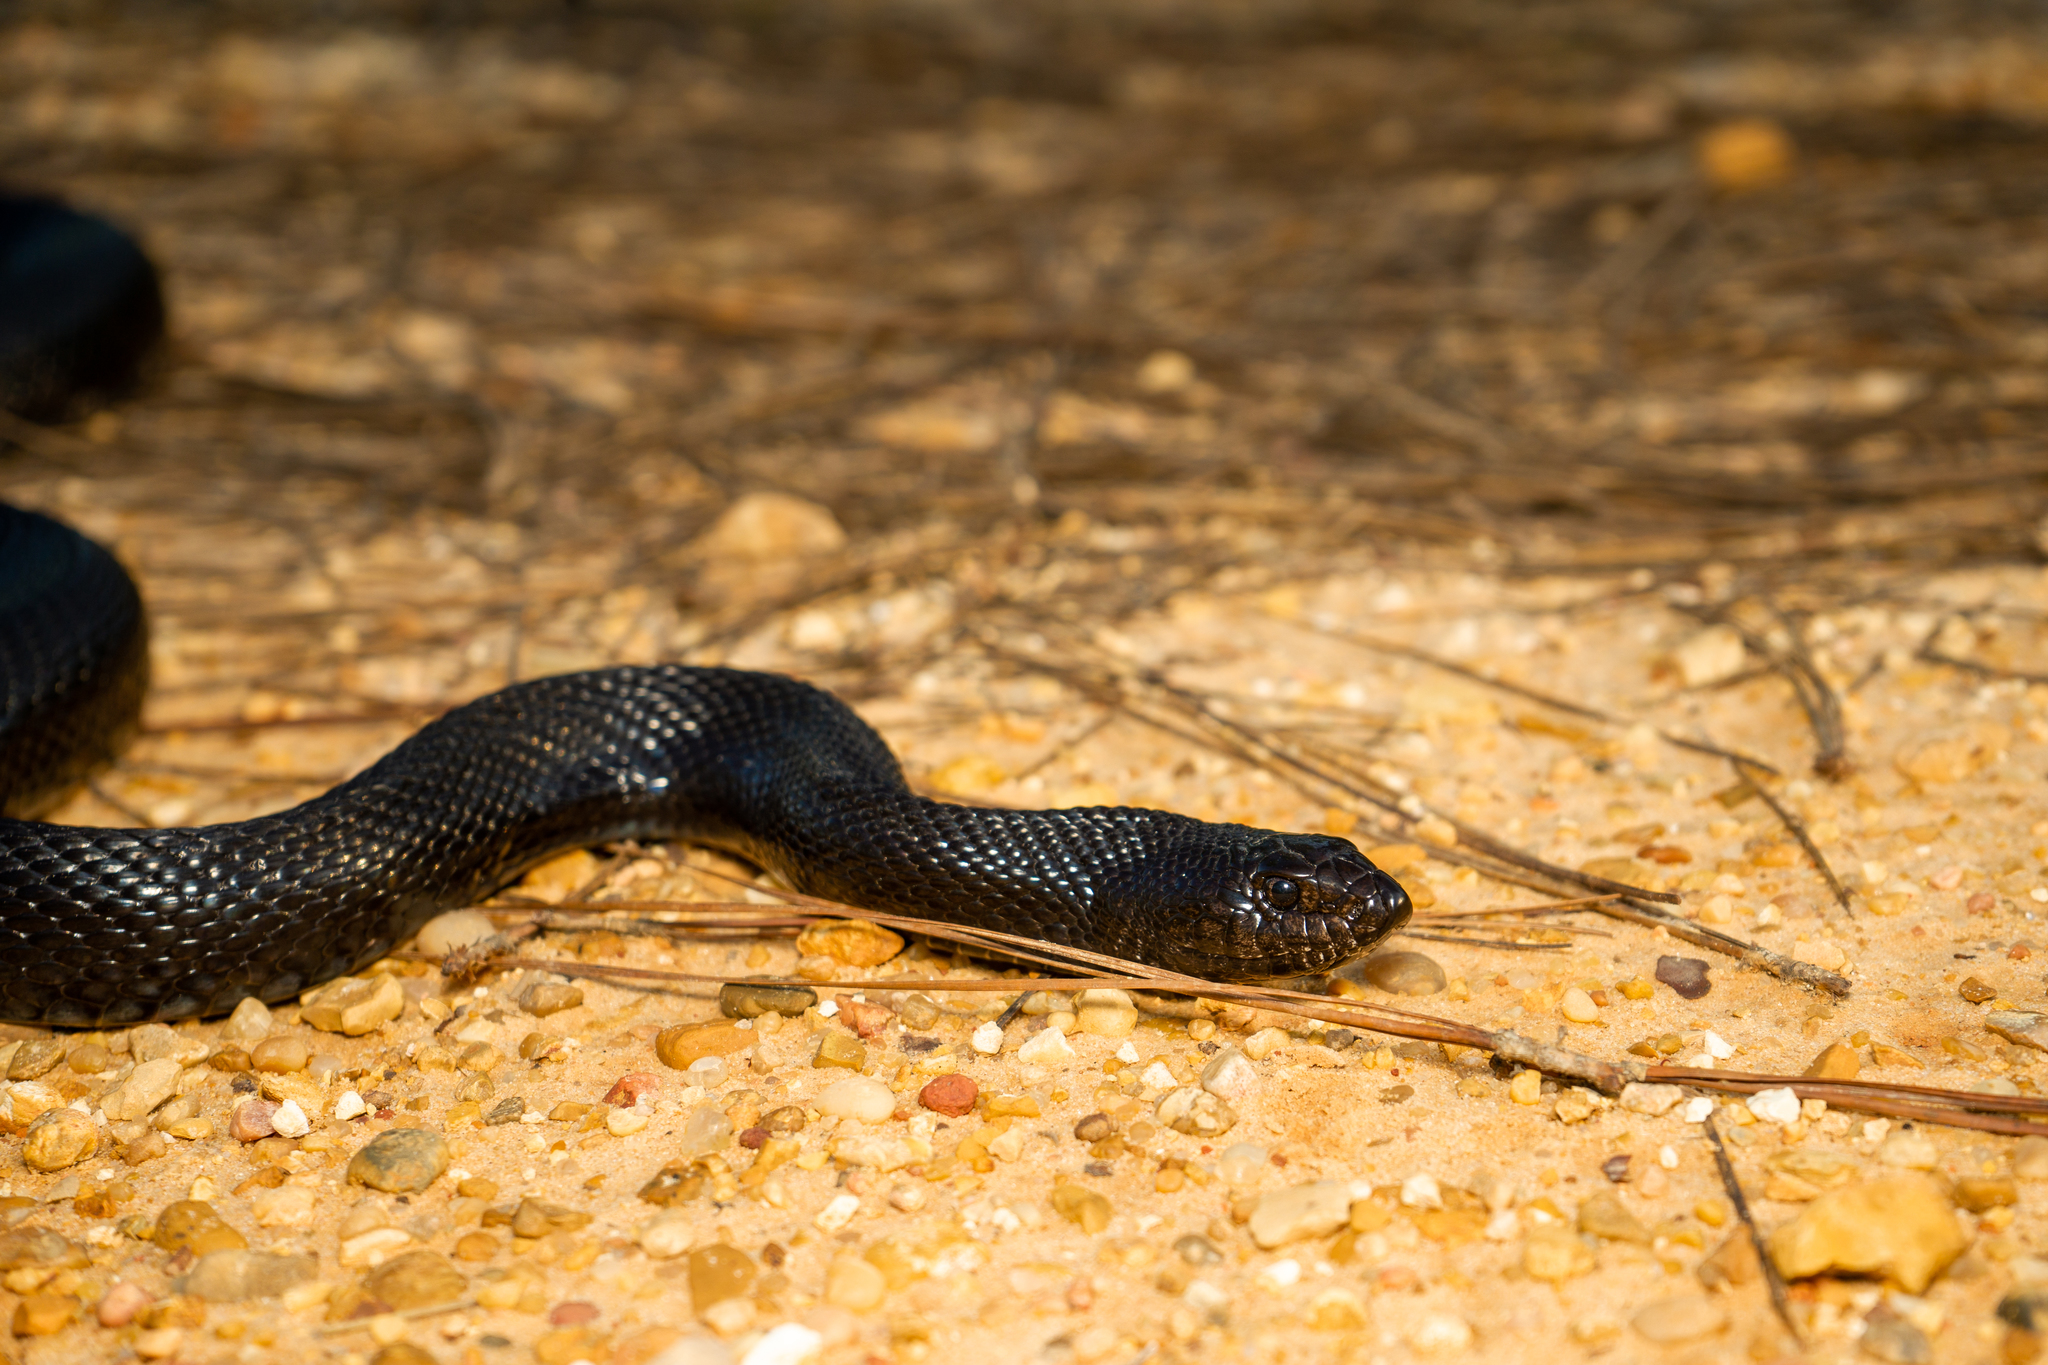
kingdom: Animalia
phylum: Chordata
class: Squamata
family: Colubridae
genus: Pituophis
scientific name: Pituophis melanoleucus
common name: Pine snake
